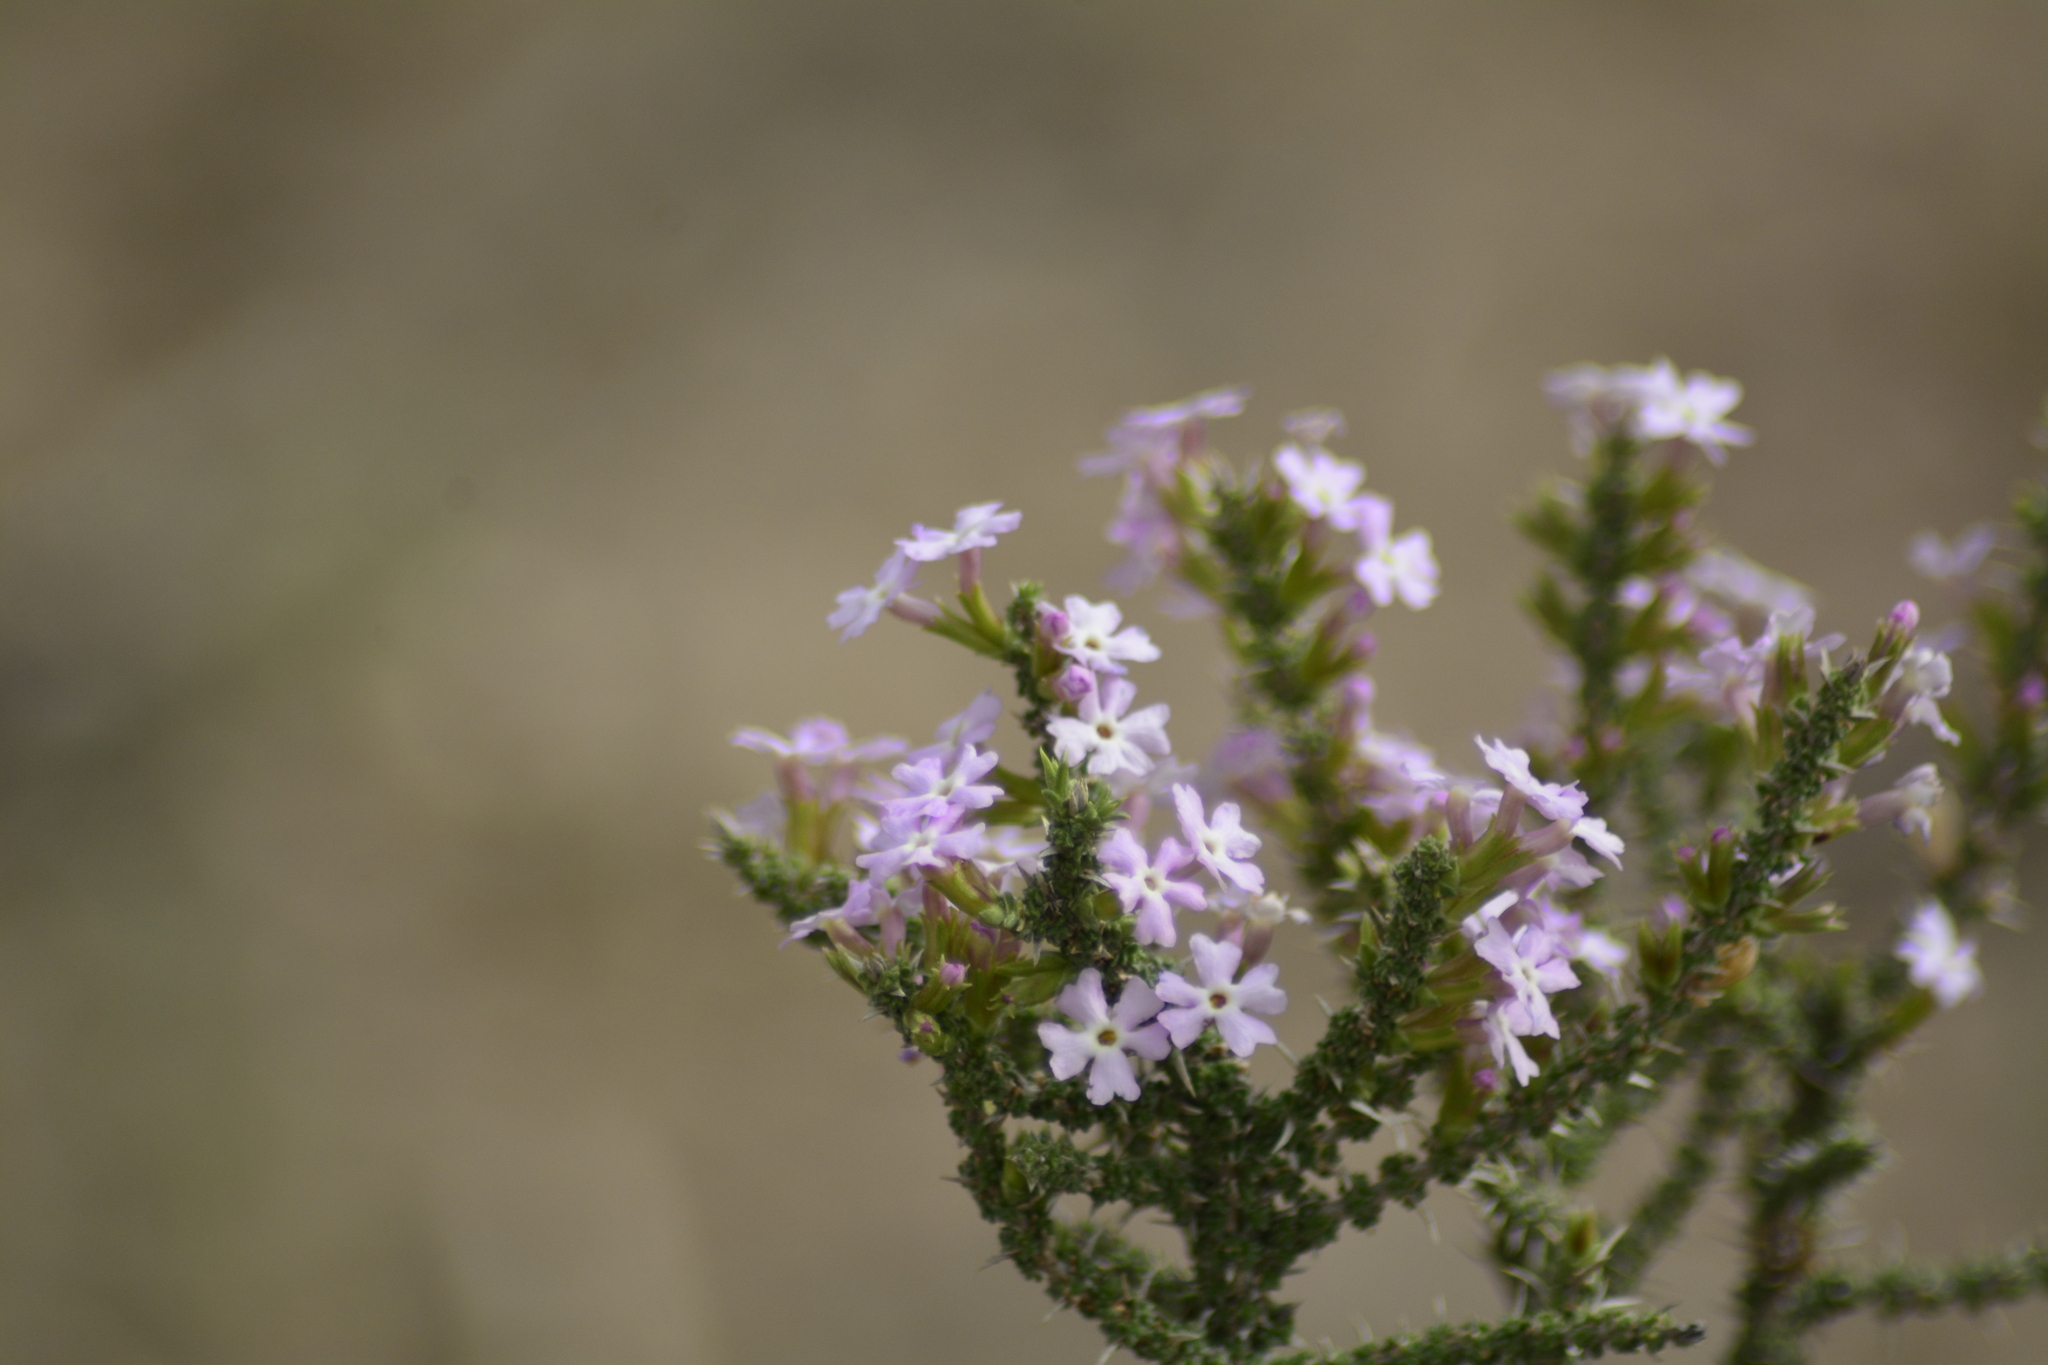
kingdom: Plantae
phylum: Tracheophyta
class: Magnoliopsida
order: Lamiales
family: Verbenaceae
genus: Junellia
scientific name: Junellia seriphioides
